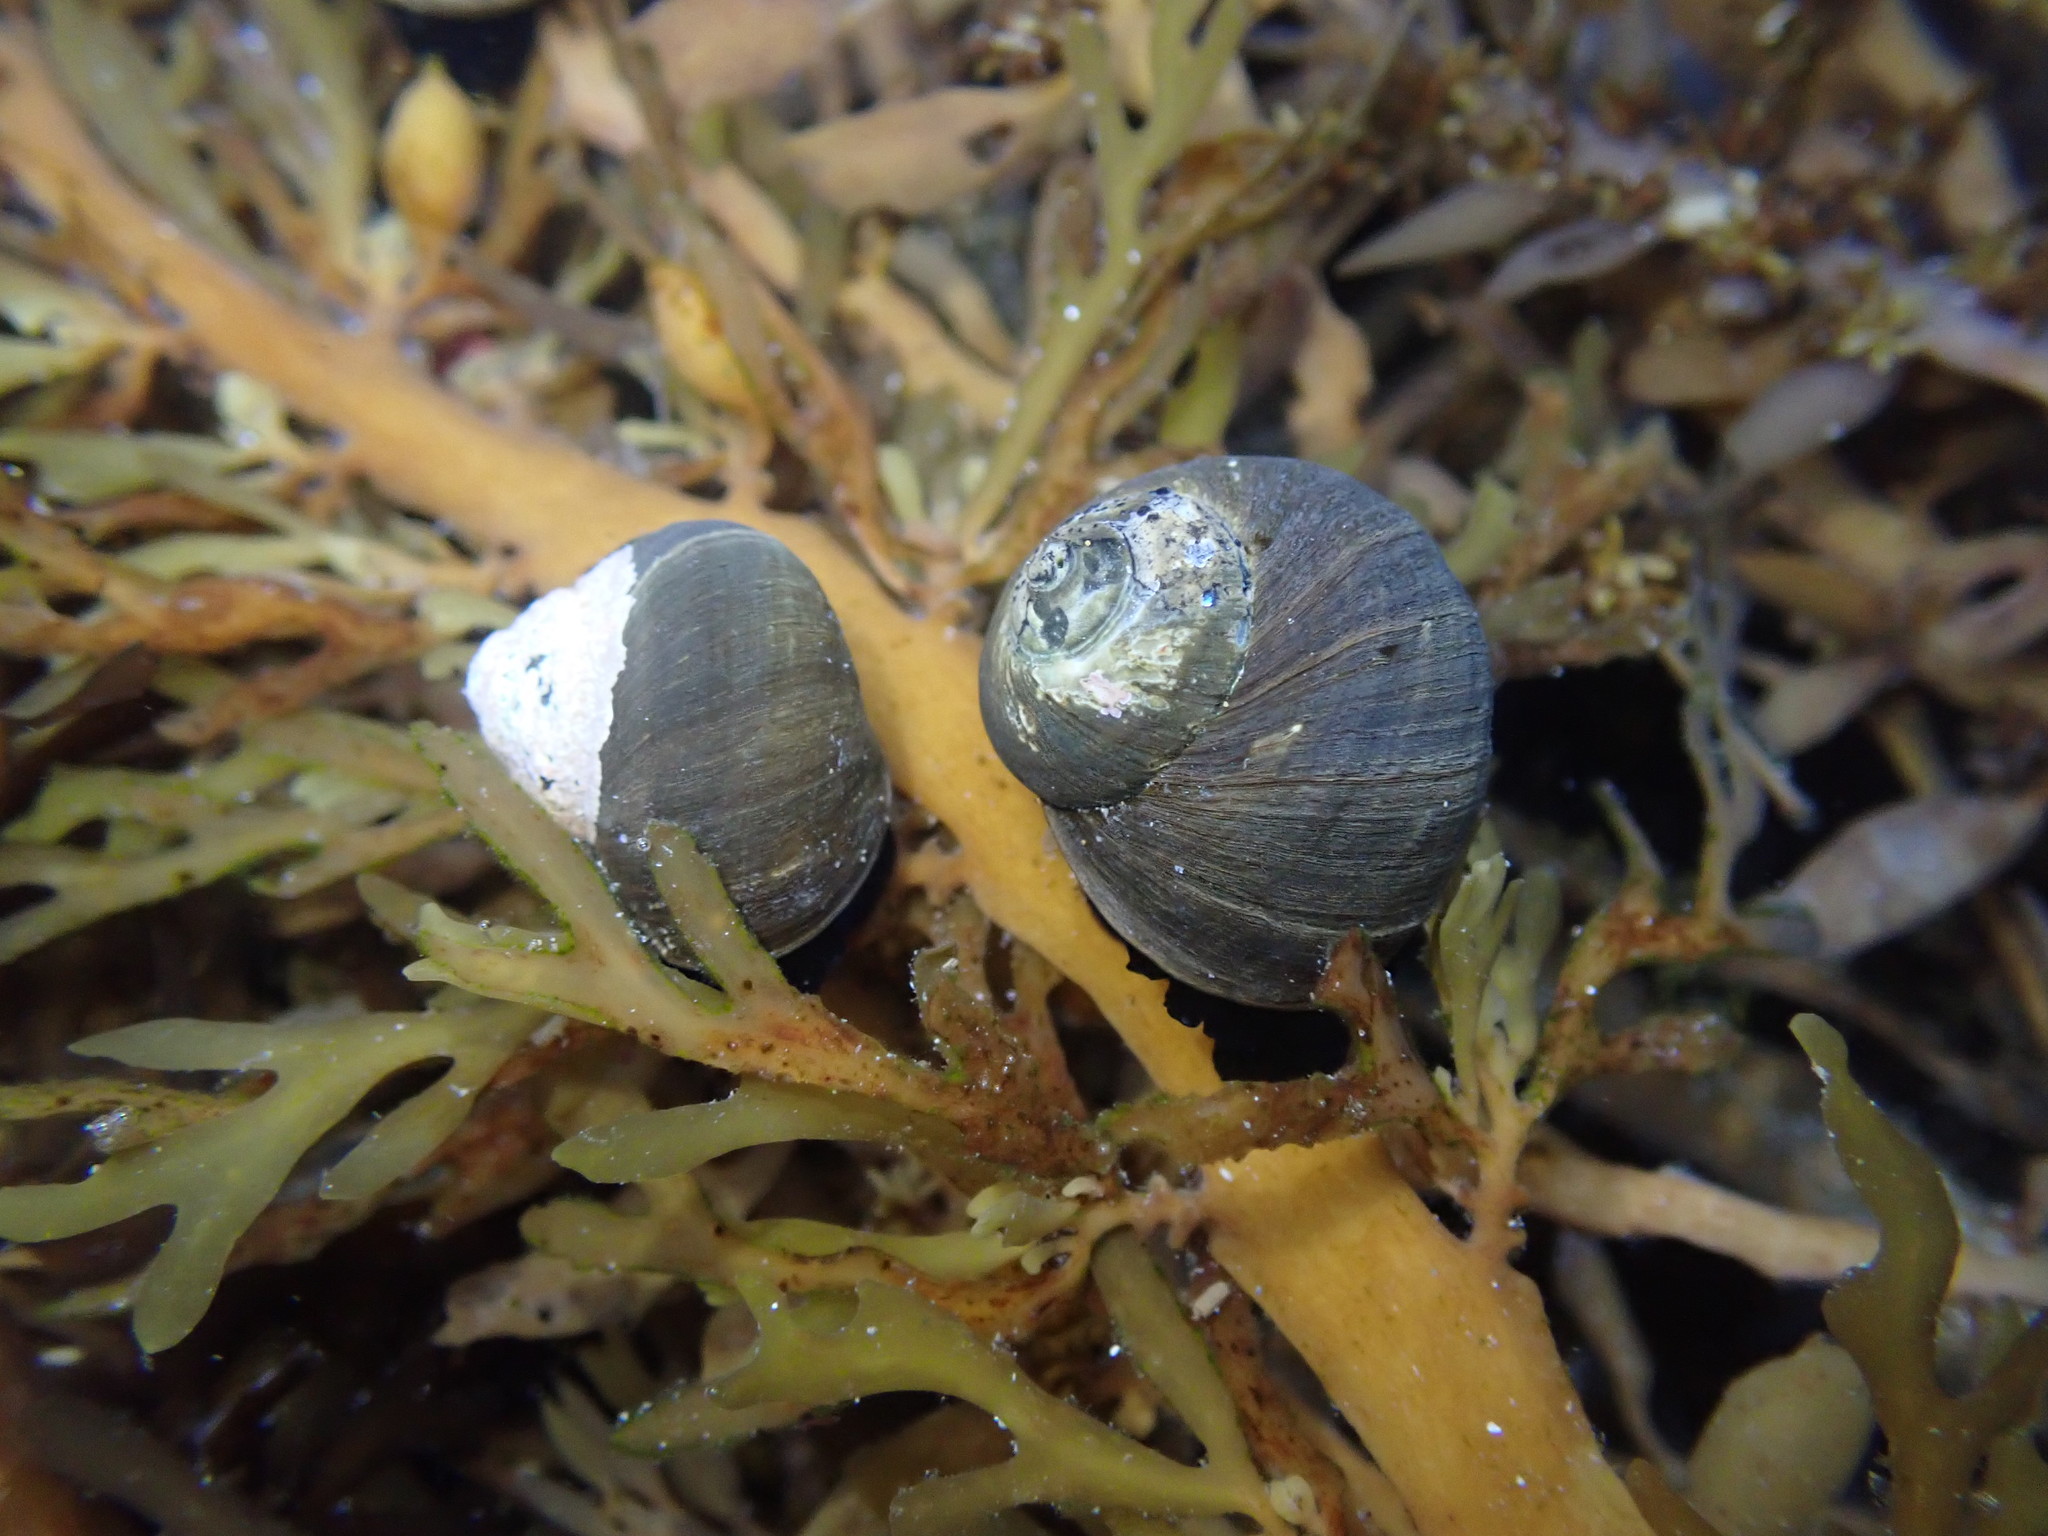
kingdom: Animalia
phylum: Mollusca
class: Gastropoda
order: Trochida
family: Turbinidae
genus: Lunella
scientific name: Lunella smaragda
